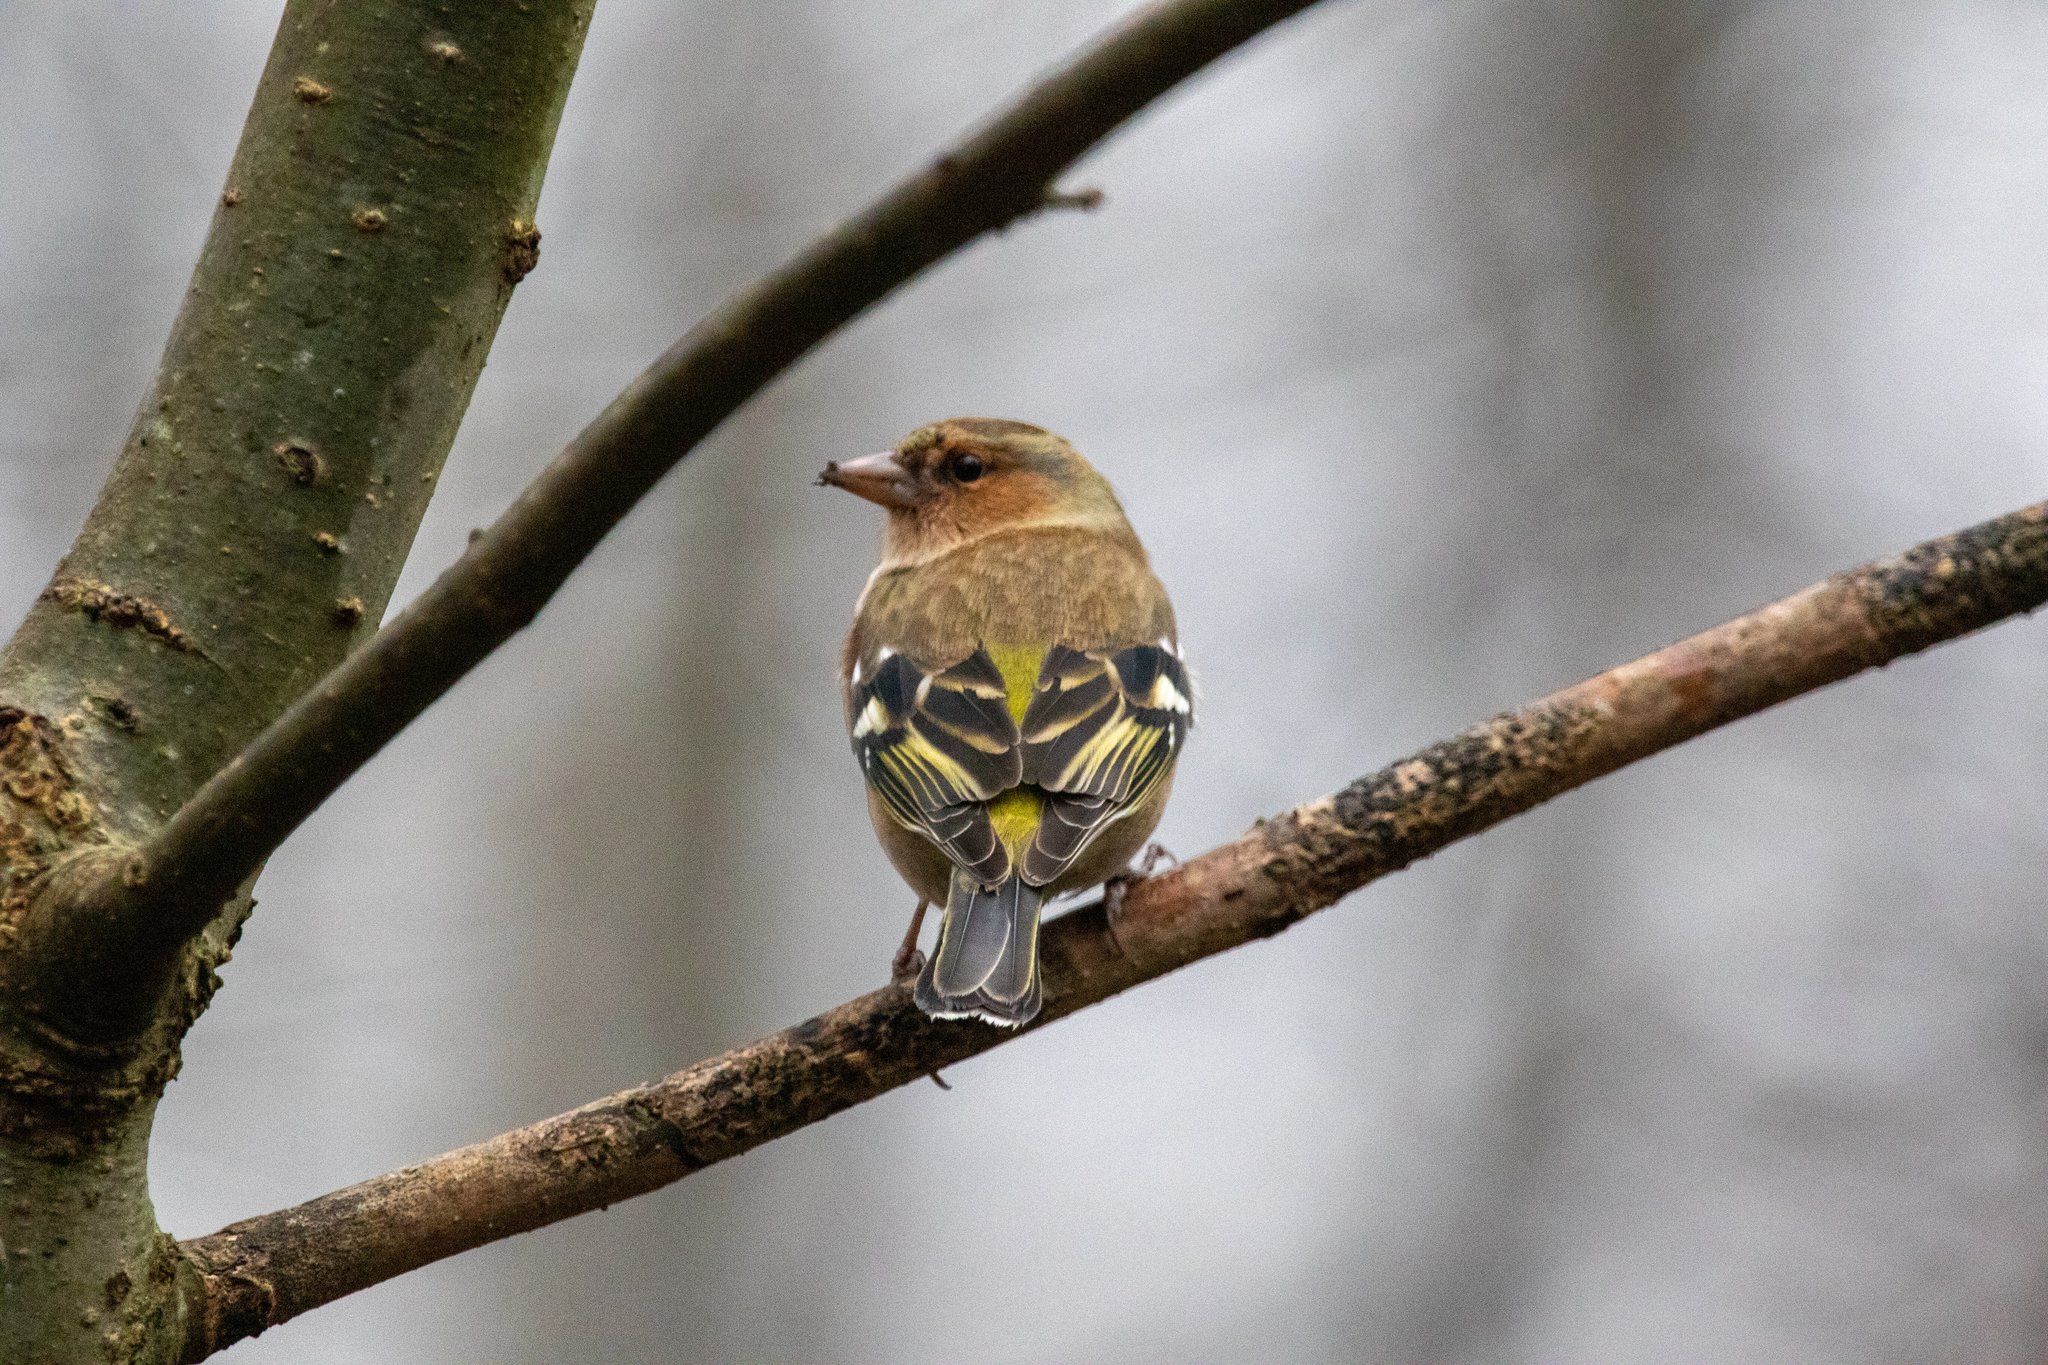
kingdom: Animalia
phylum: Chordata
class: Aves
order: Passeriformes
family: Fringillidae
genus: Fringilla
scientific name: Fringilla coelebs
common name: Common chaffinch
